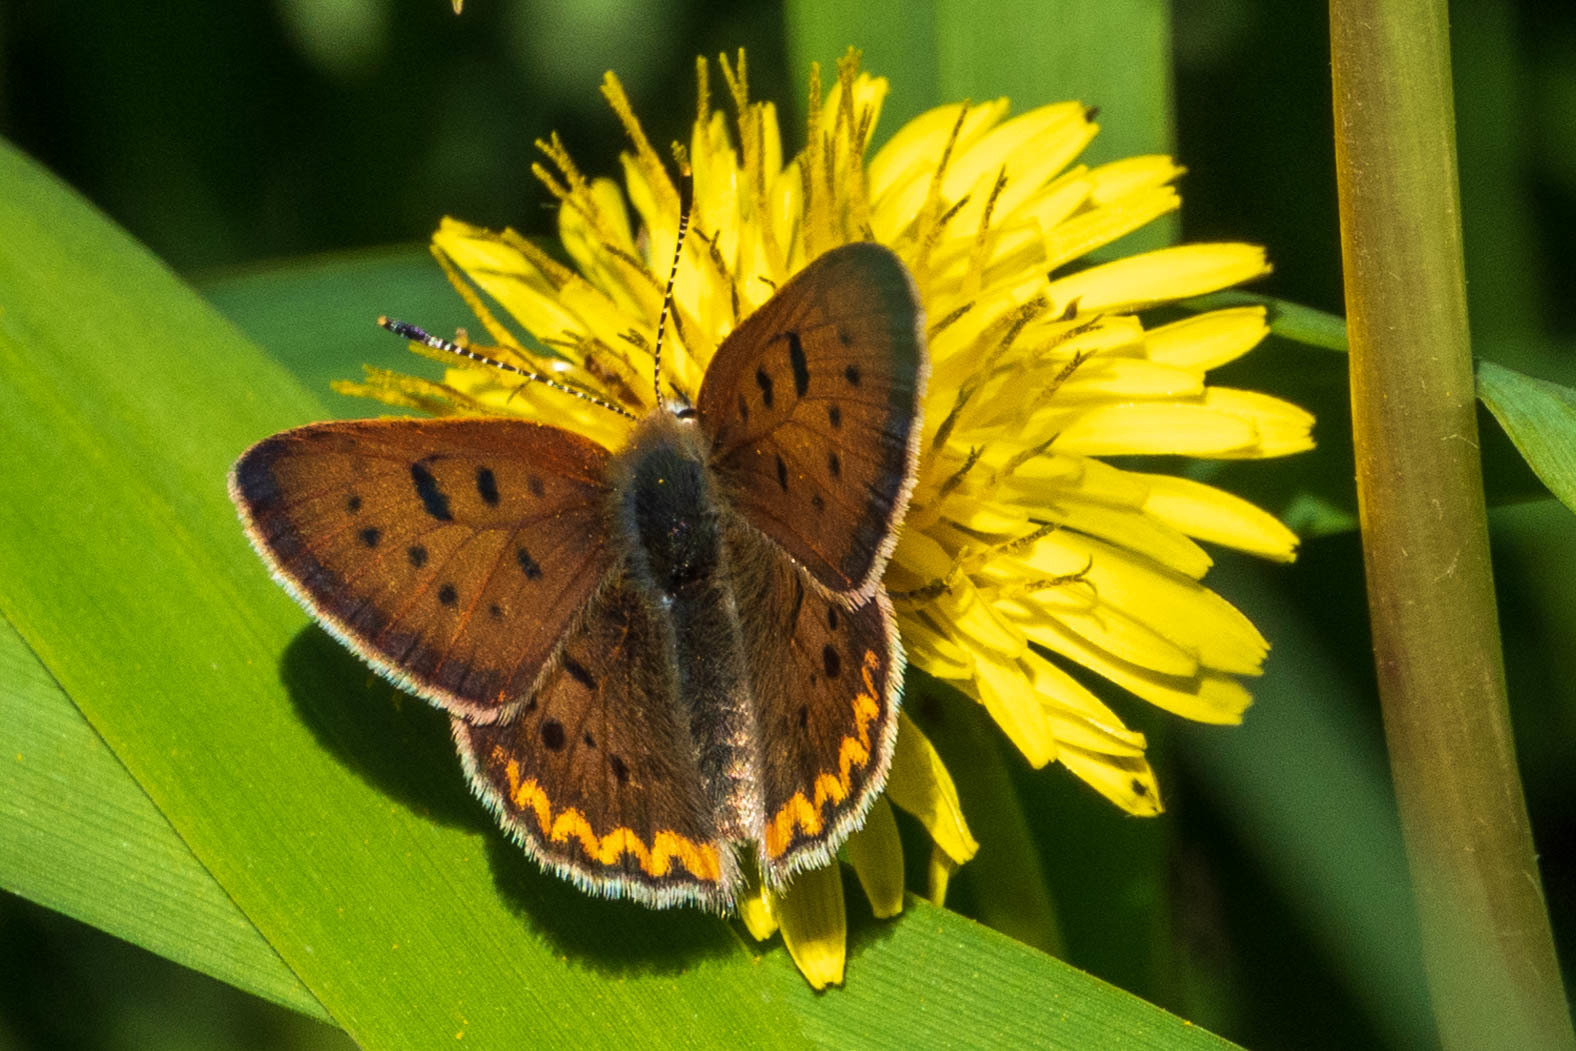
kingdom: Animalia
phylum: Arthropoda
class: Insecta
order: Lepidoptera
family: Lycaenidae
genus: Tharsalea
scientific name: Tharsalea helloides
